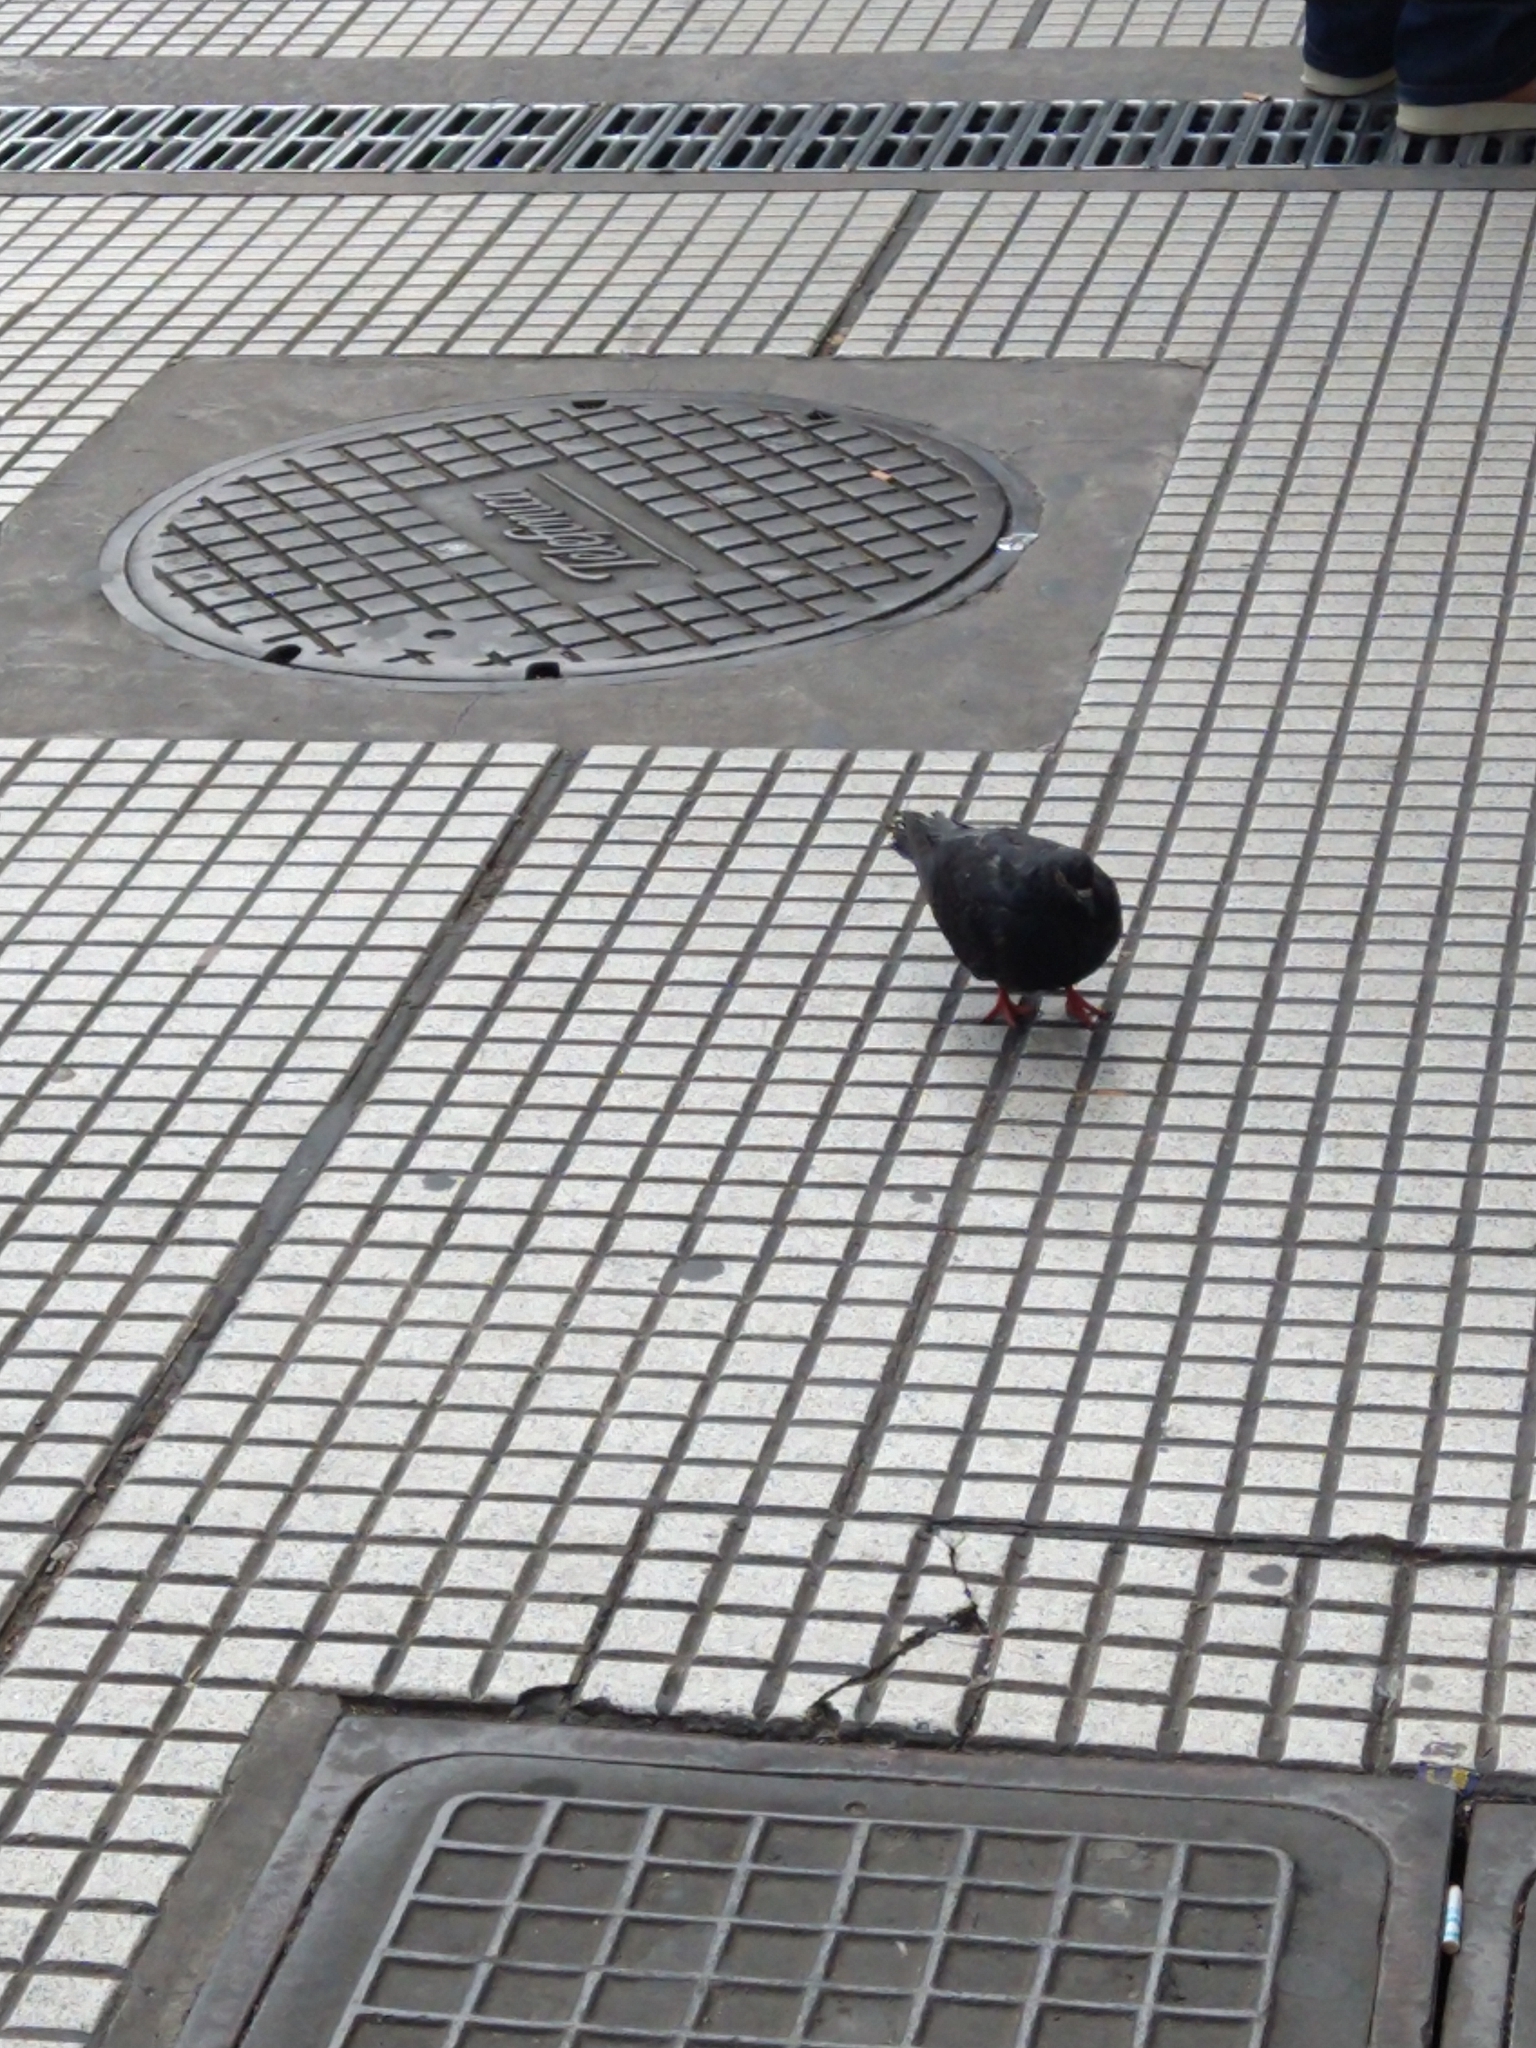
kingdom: Animalia
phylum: Chordata
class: Aves
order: Columbiformes
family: Columbidae
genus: Columba
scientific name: Columba livia
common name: Rock pigeon
